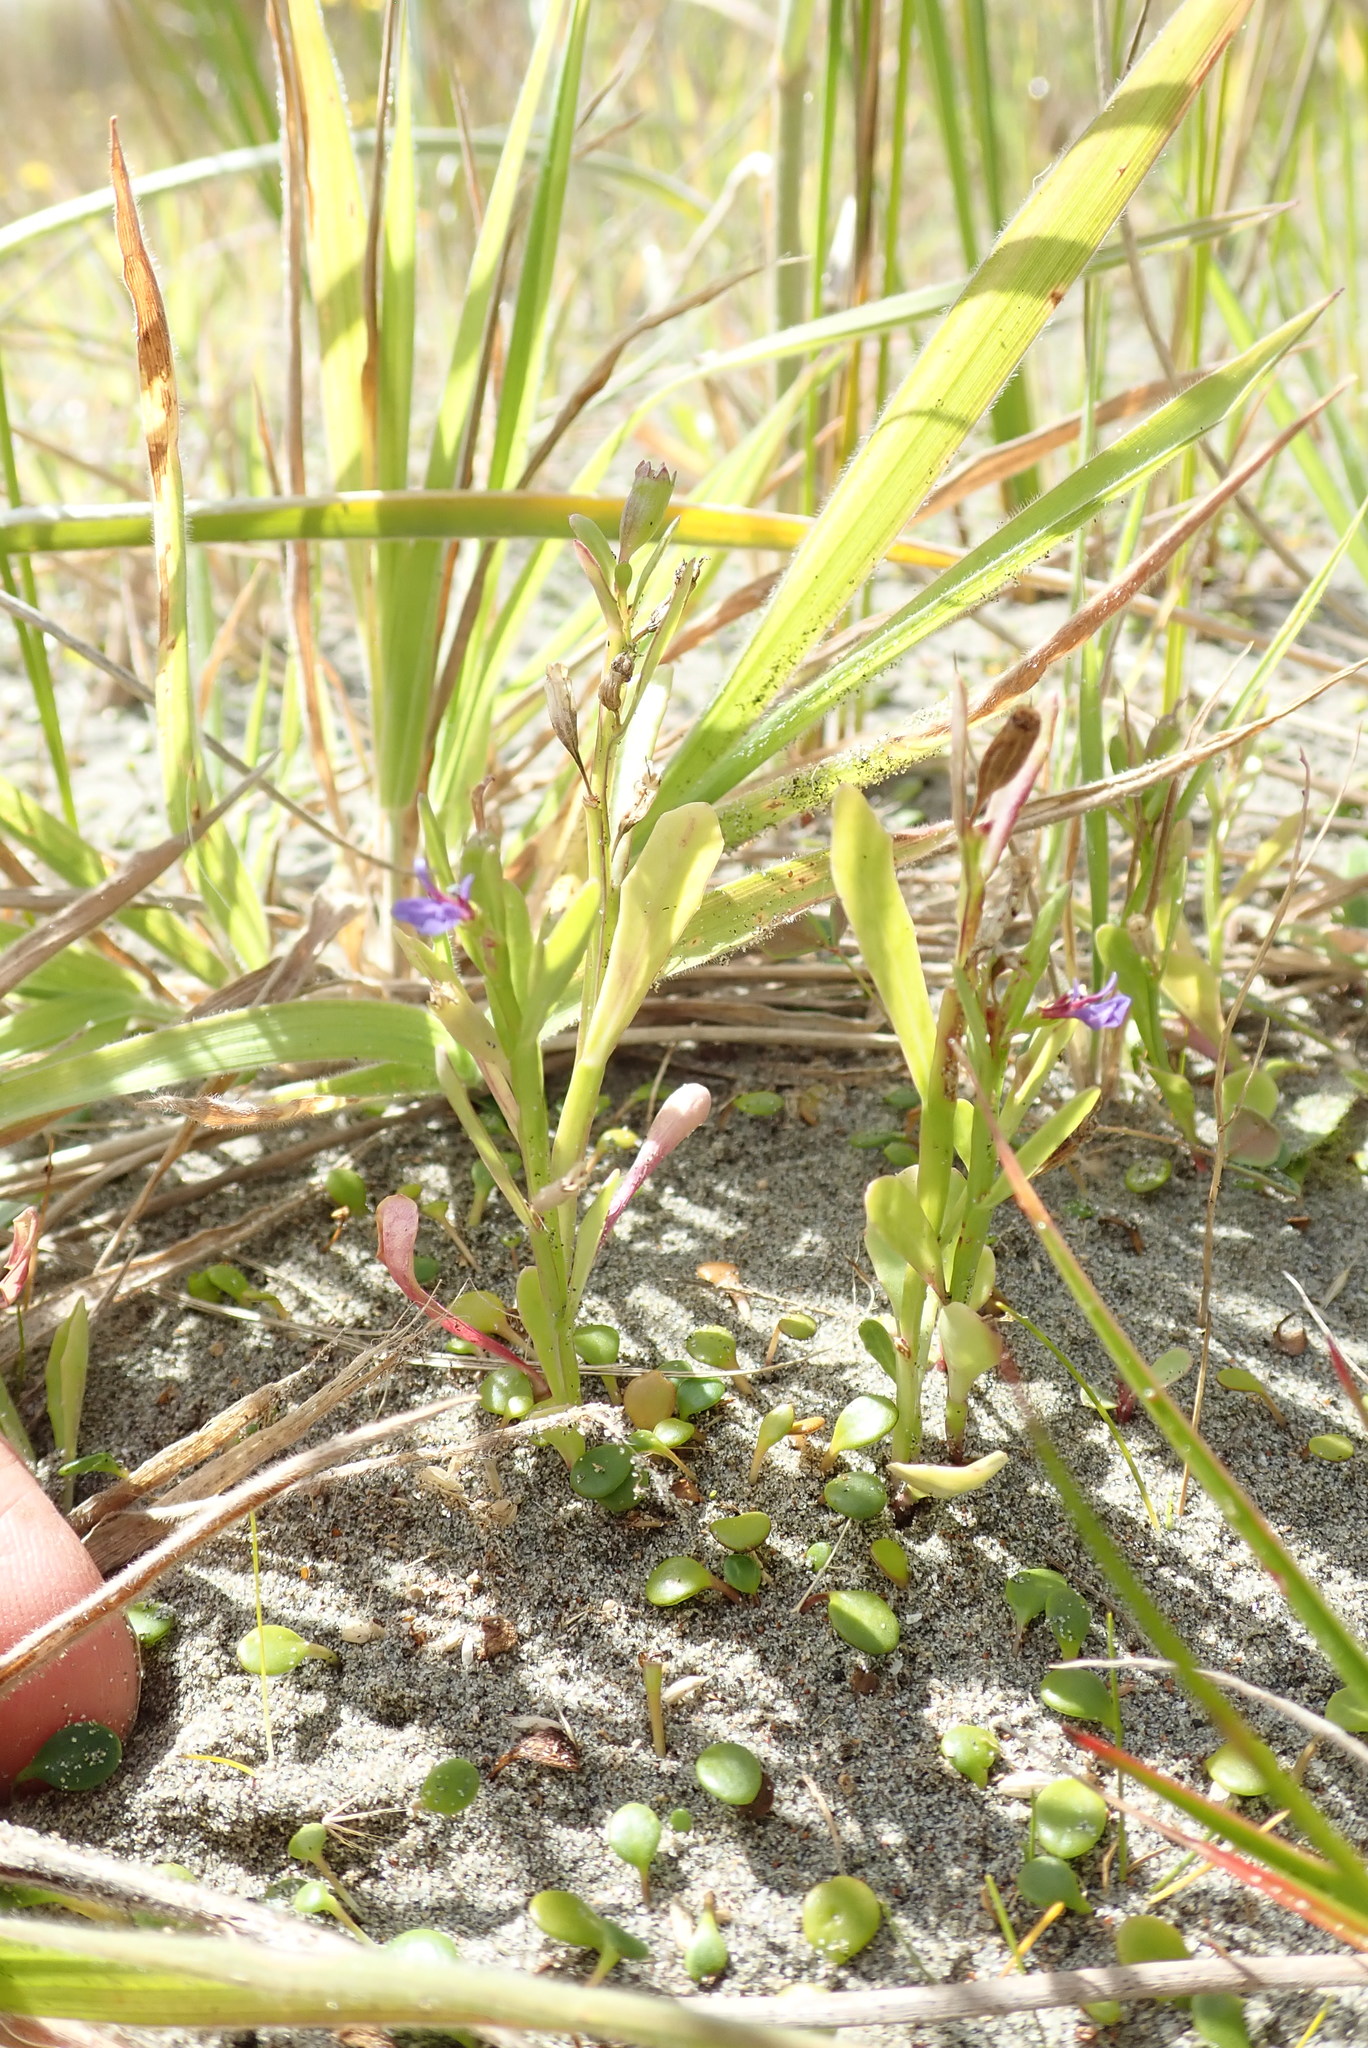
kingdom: Plantae
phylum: Tracheophyta
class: Magnoliopsida
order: Asterales
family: Campanulaceae
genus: Lobelia
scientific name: Lobelia anceps
